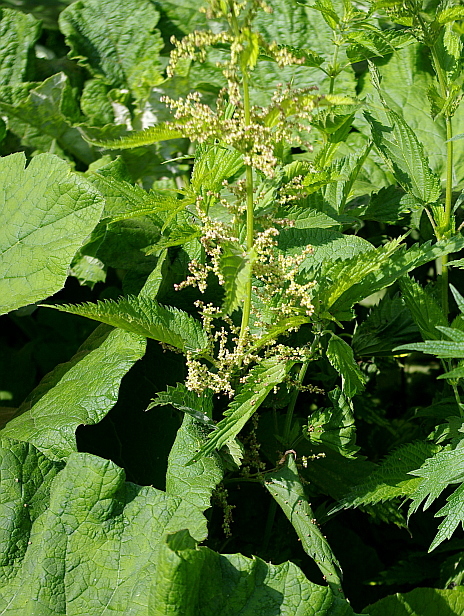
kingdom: Plantae
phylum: Tracheophyta
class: Magnoliopsida
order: Rosales
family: Urticaceae
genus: Urtica
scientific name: Urtica dioica
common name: Common nettle
